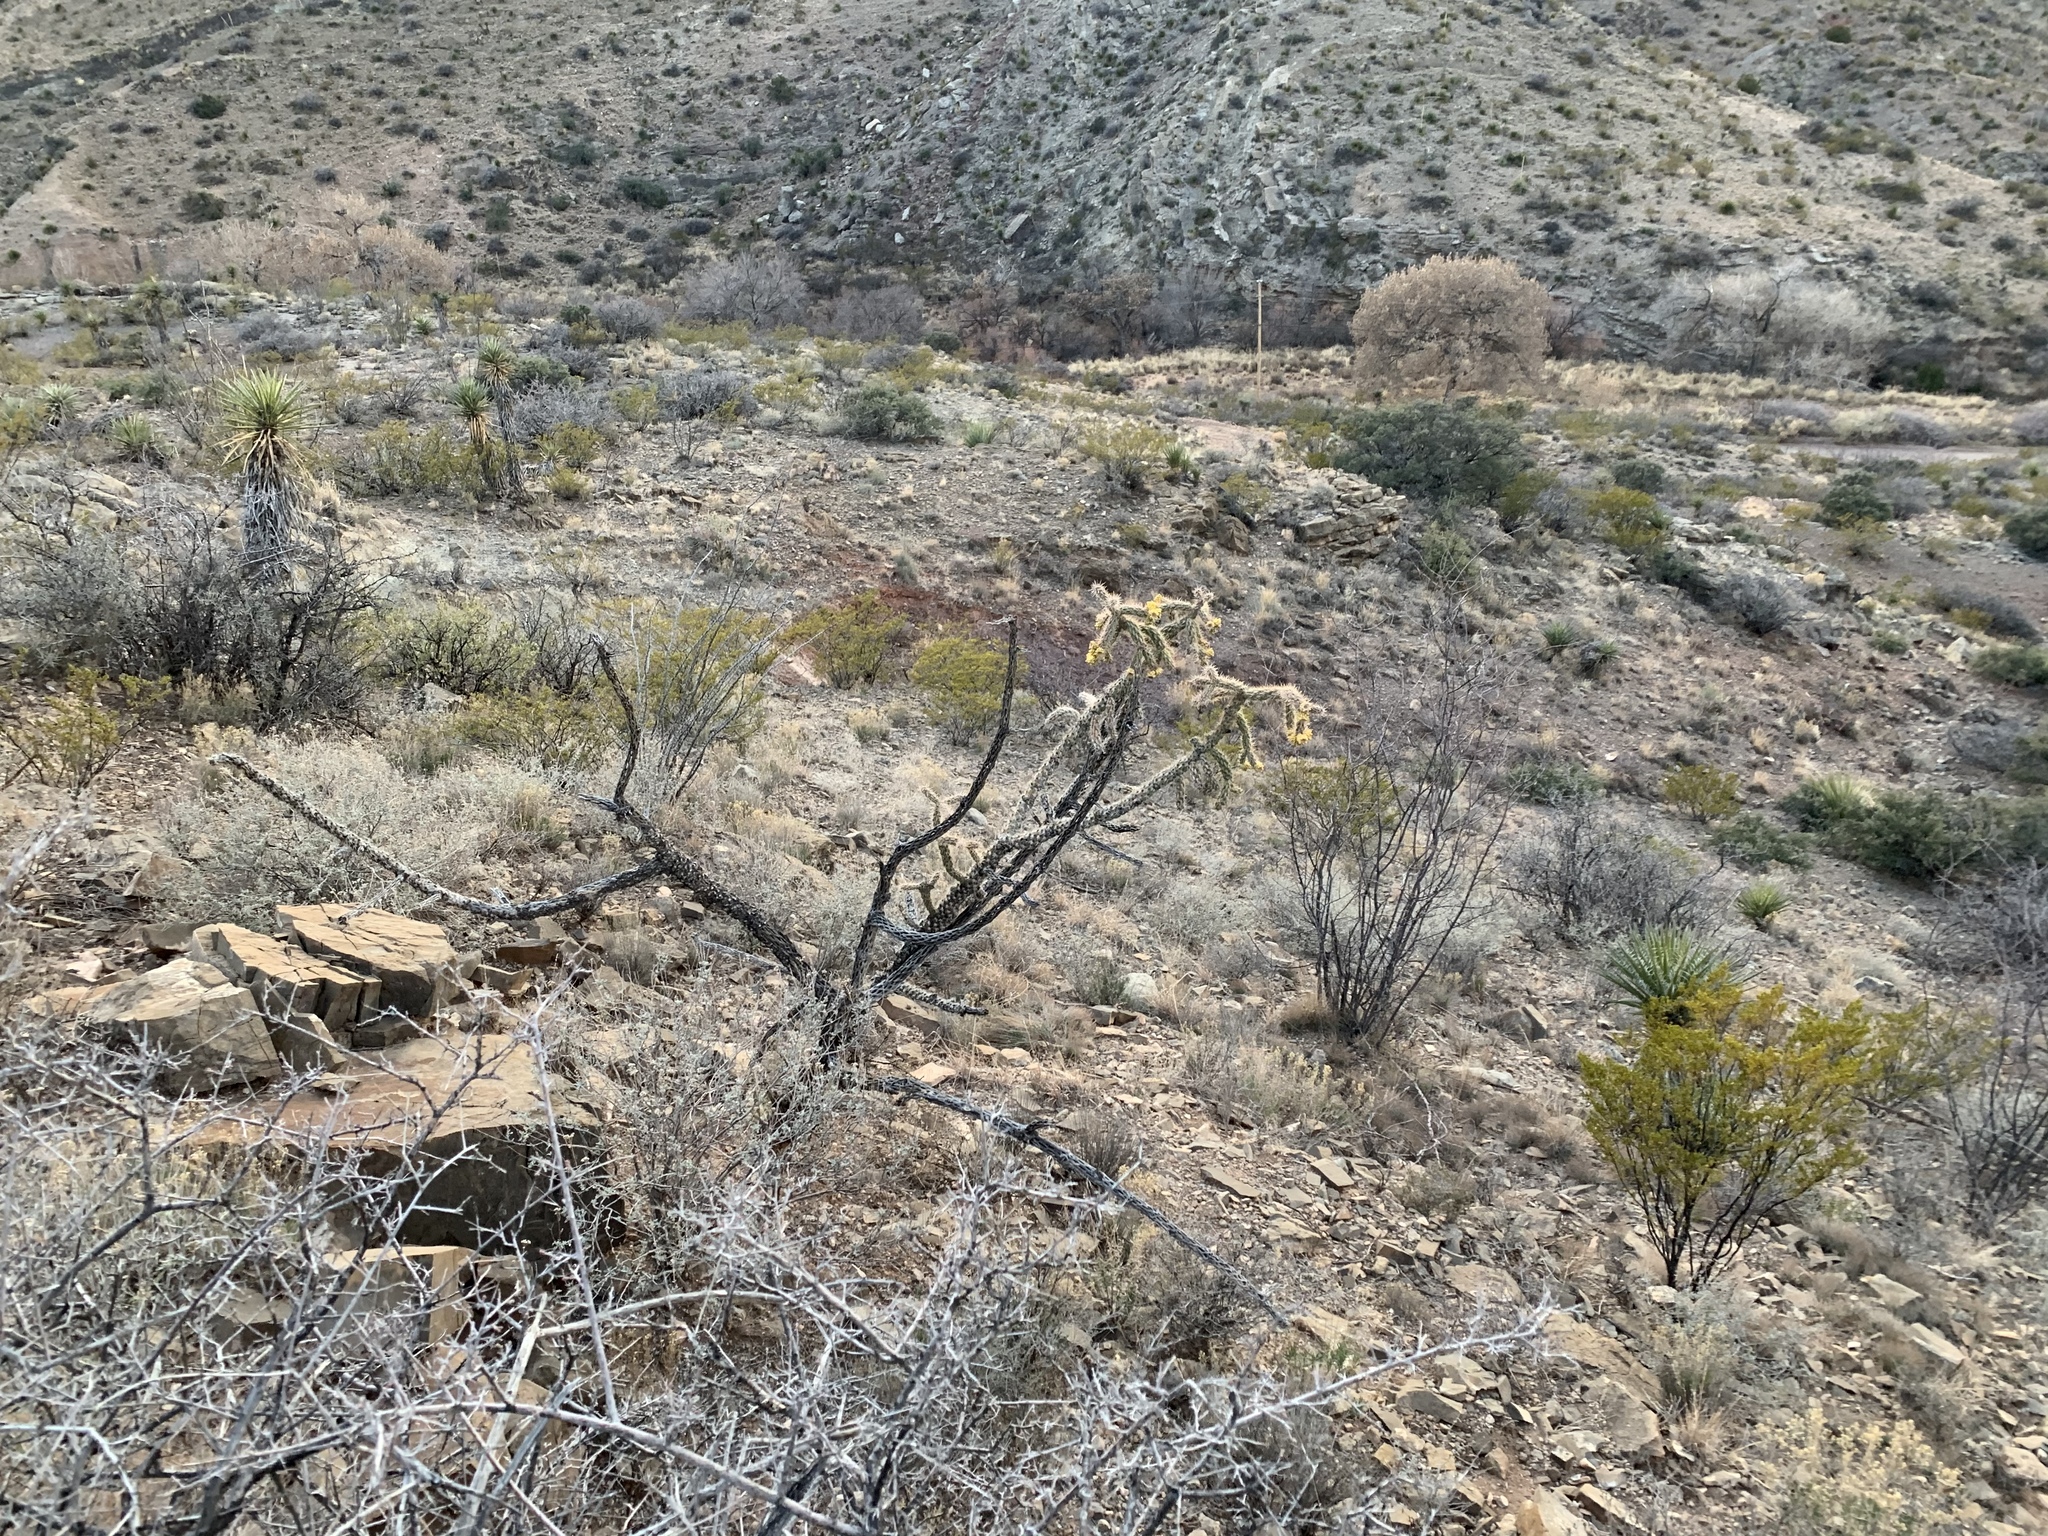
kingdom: Plantae
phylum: Tracheophyta
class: Magnoliopsida
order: Caryophyllales
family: Cactaceae
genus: Cylindropuntia
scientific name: Cylindropuntia imbricata
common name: Candelabrum cactus
